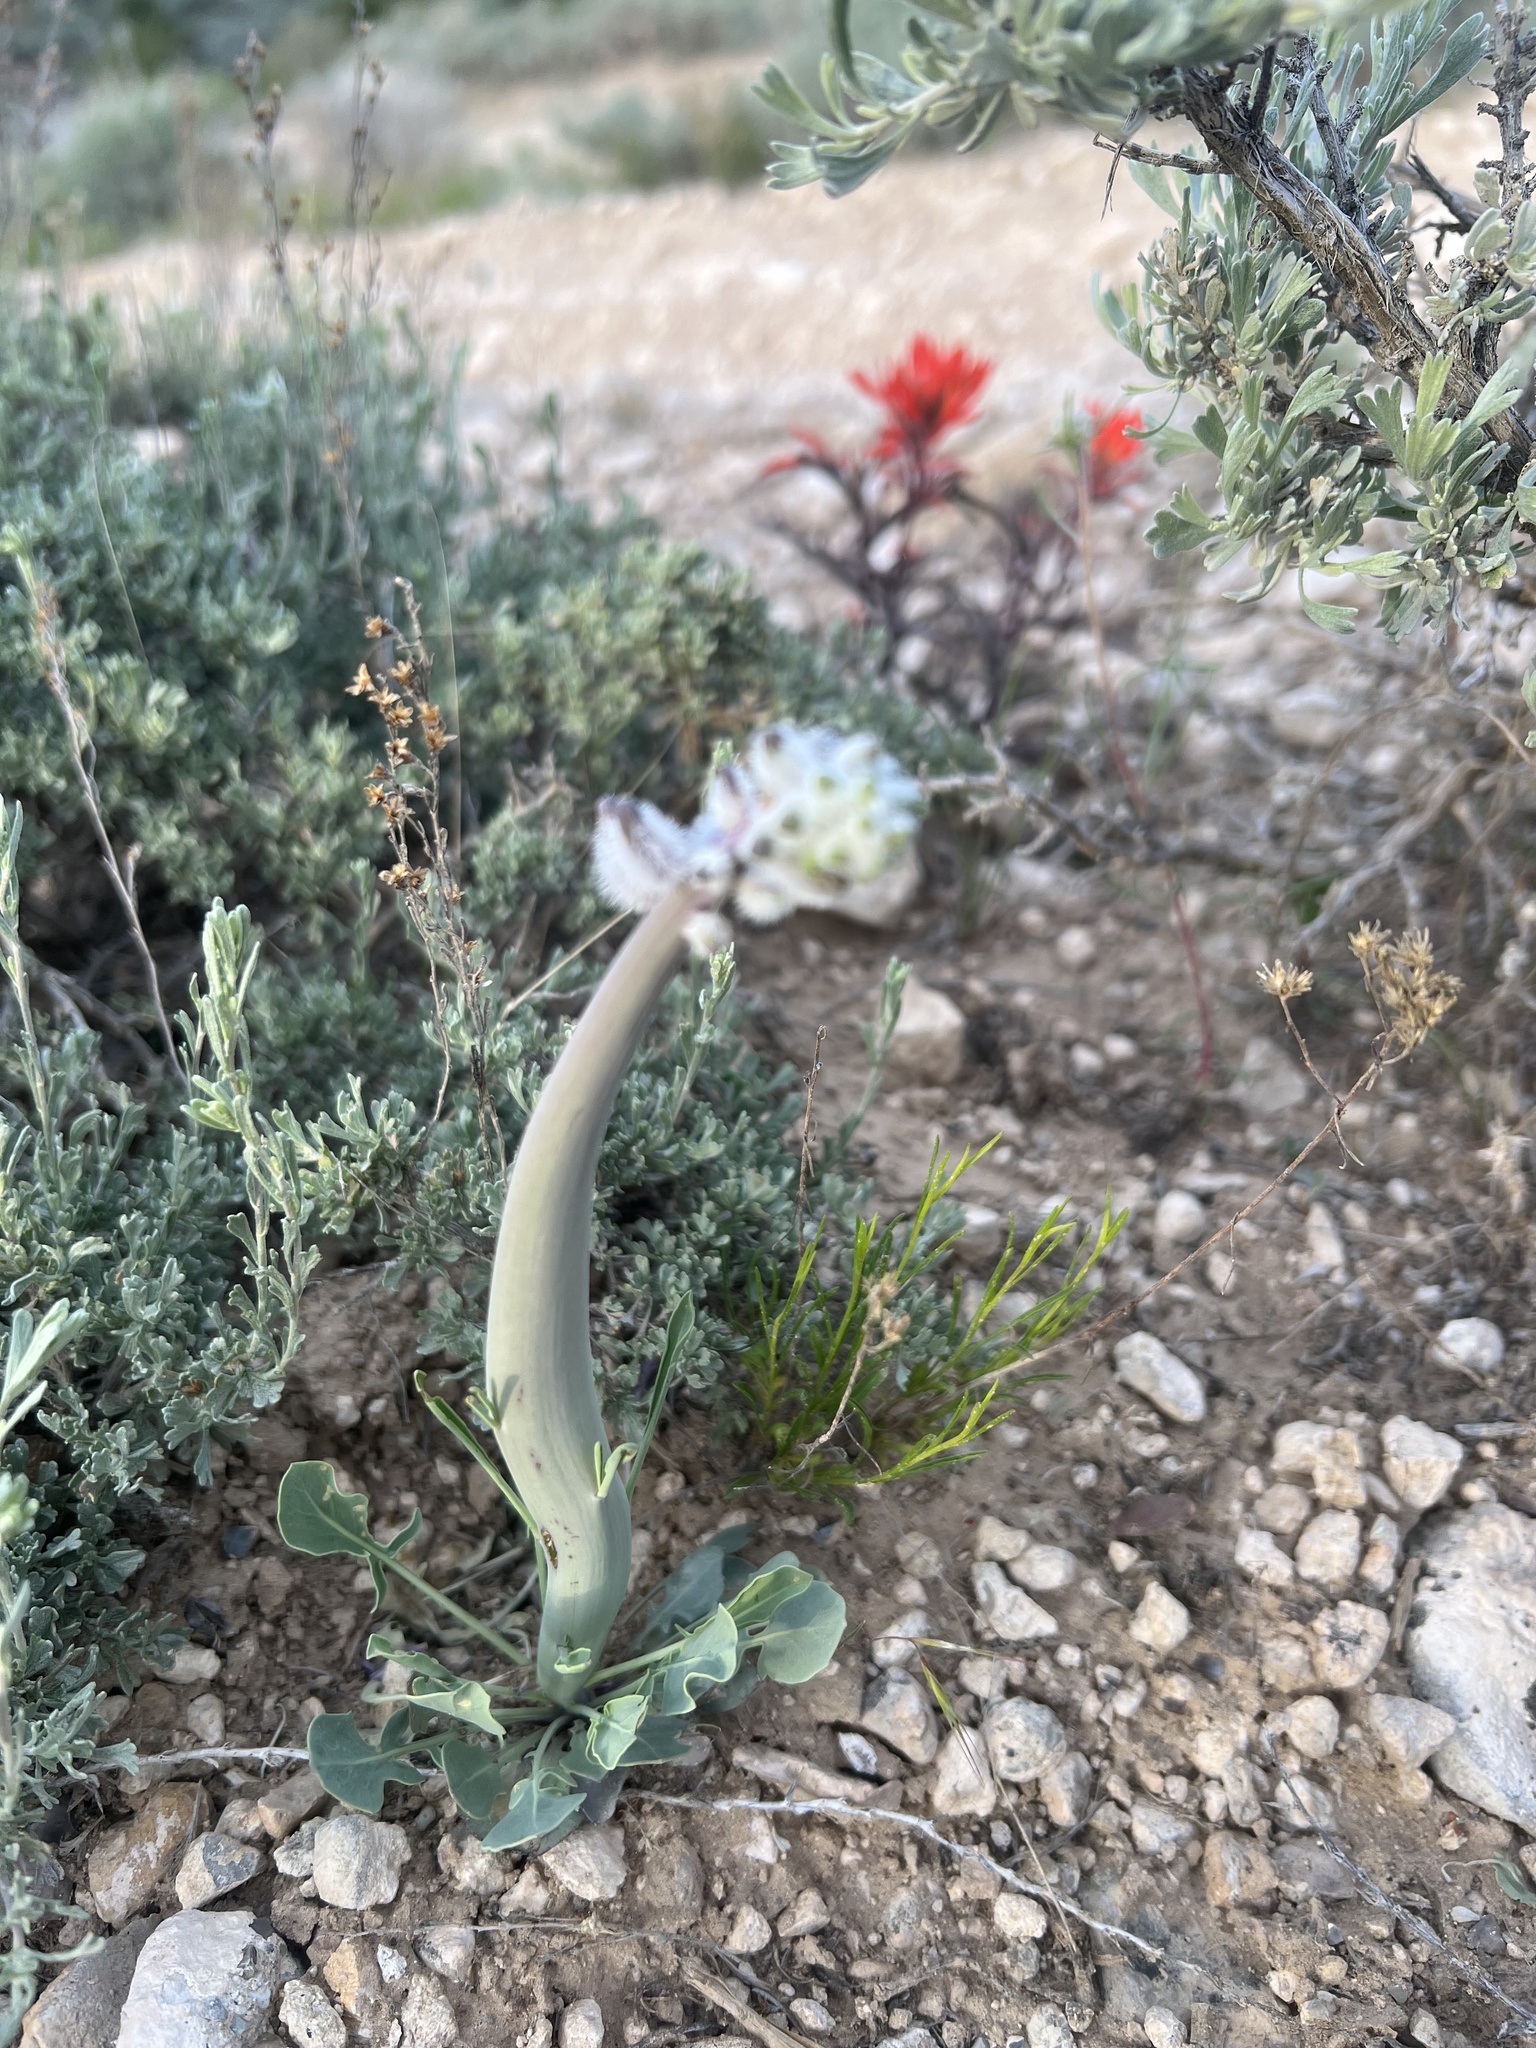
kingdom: Plantae
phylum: Tracheophyta
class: Magnoliopsida
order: Brassicales
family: Brassicaceae
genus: Streptanthus
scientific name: Streptanthus crassicaulis
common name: Thick-stem wild cabbage
